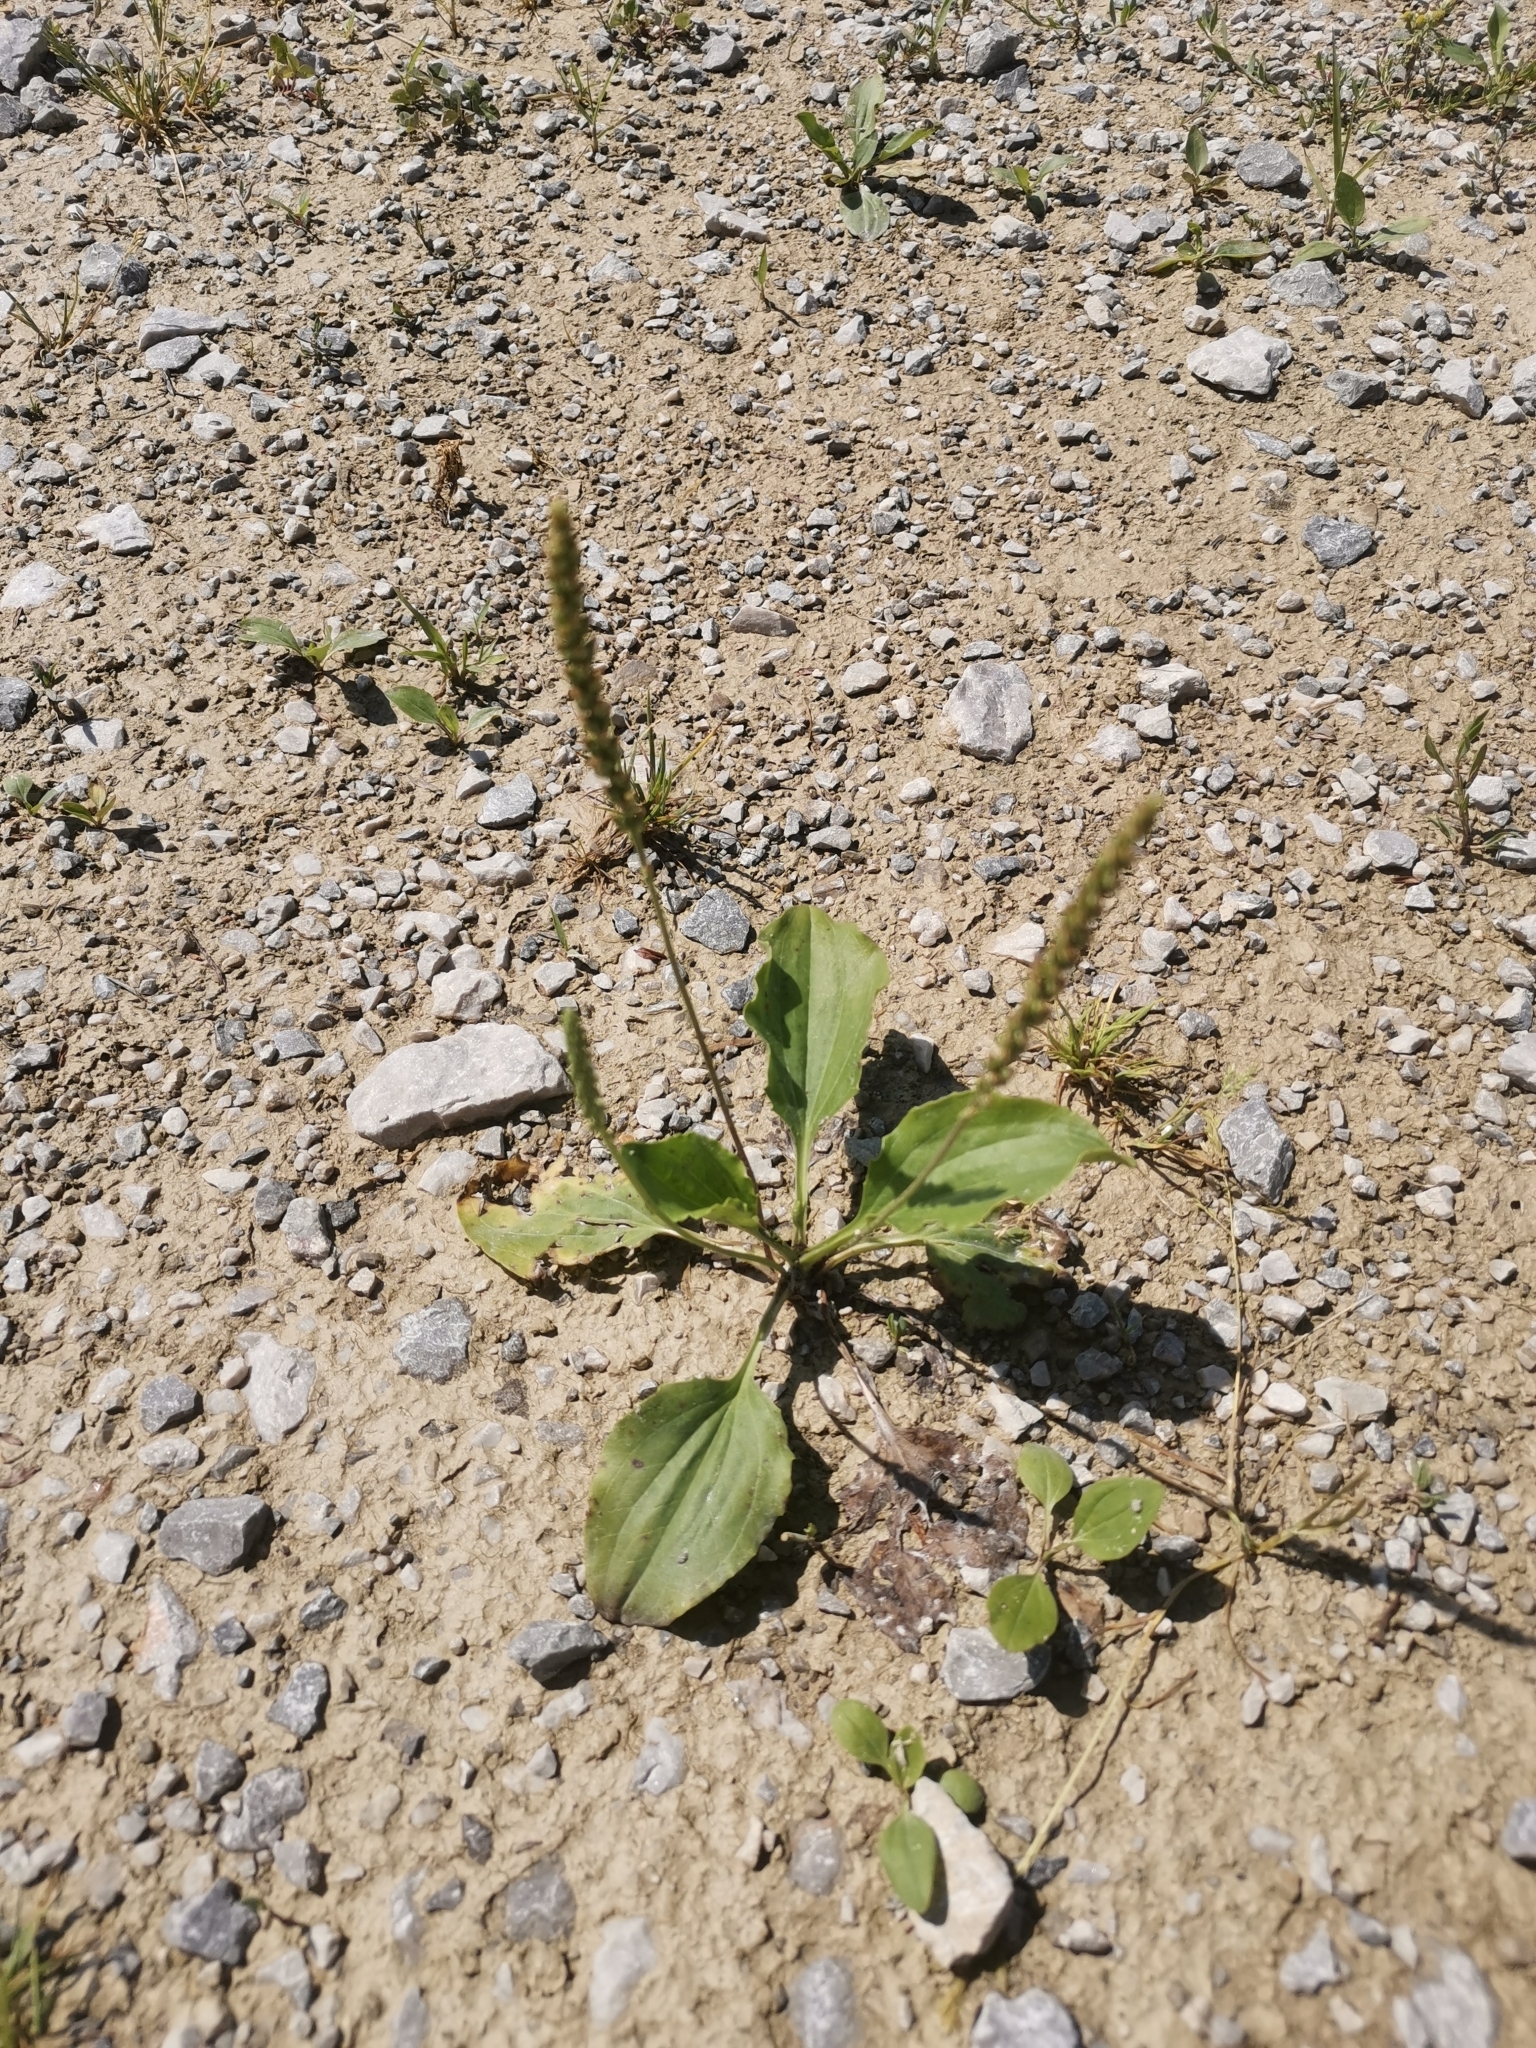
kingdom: Plantae
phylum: Tracheophyta
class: Magnoliopsida
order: Lamiales
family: Plantaginaceae
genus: Plantago
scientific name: Plantago major
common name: Common plantain
